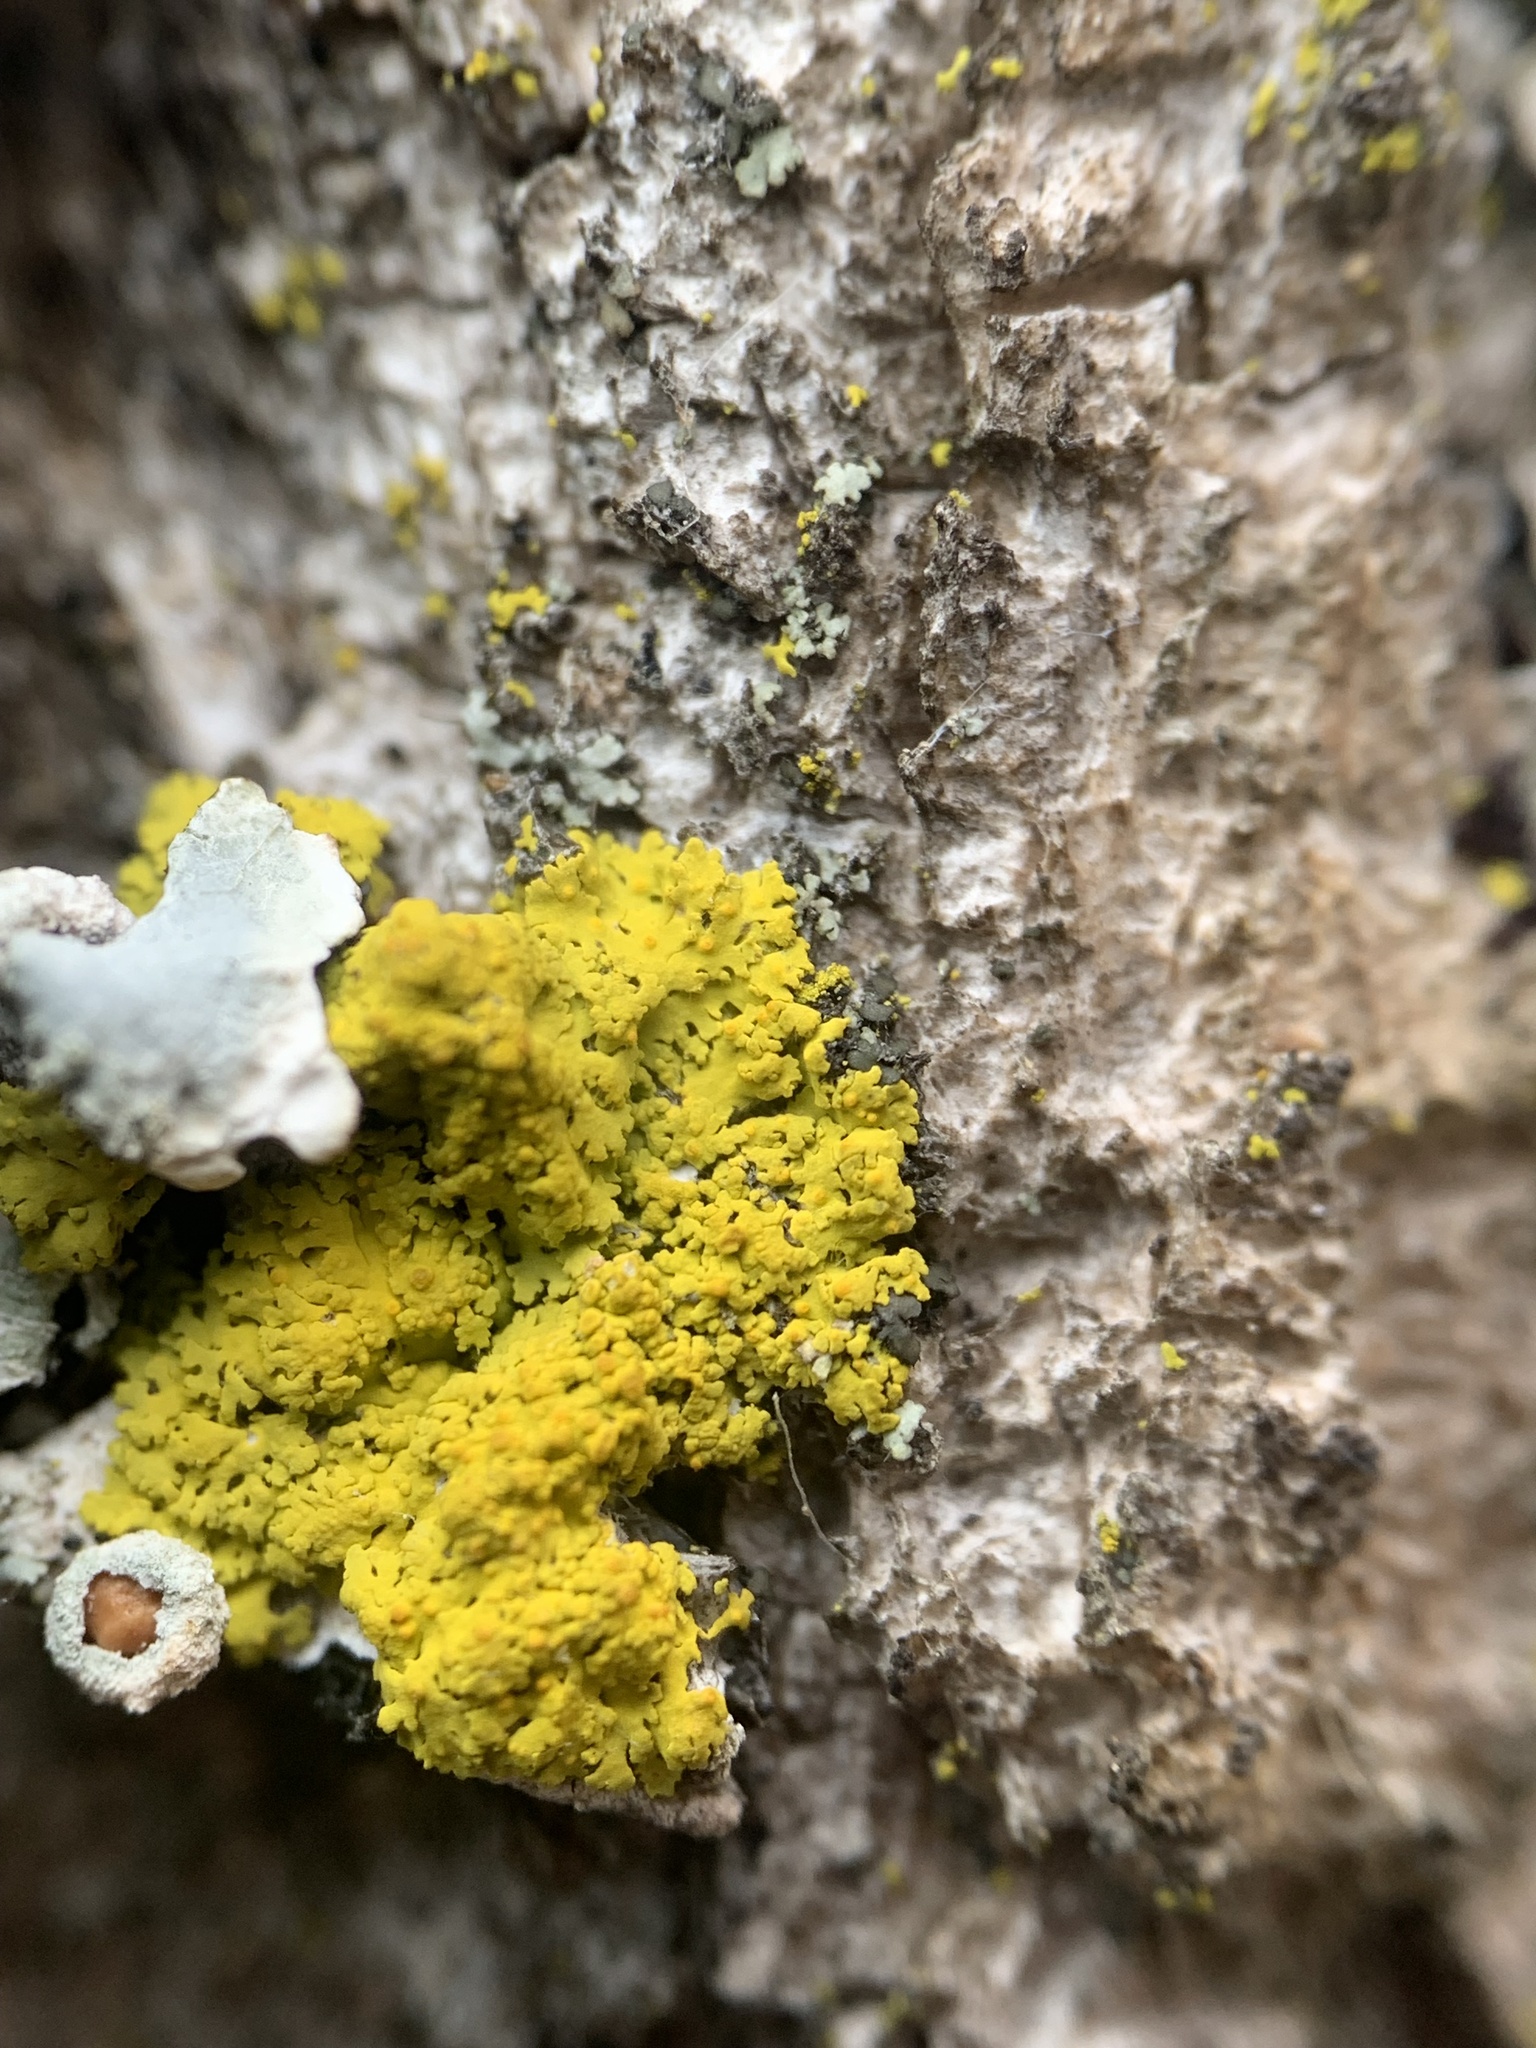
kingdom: Fungi
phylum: Ascomycota
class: Candelariomycetes
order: Candelariales
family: Candelariaceae
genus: Candelaria
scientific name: Candelaria fibrosa
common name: Fringed candleflame lichen
